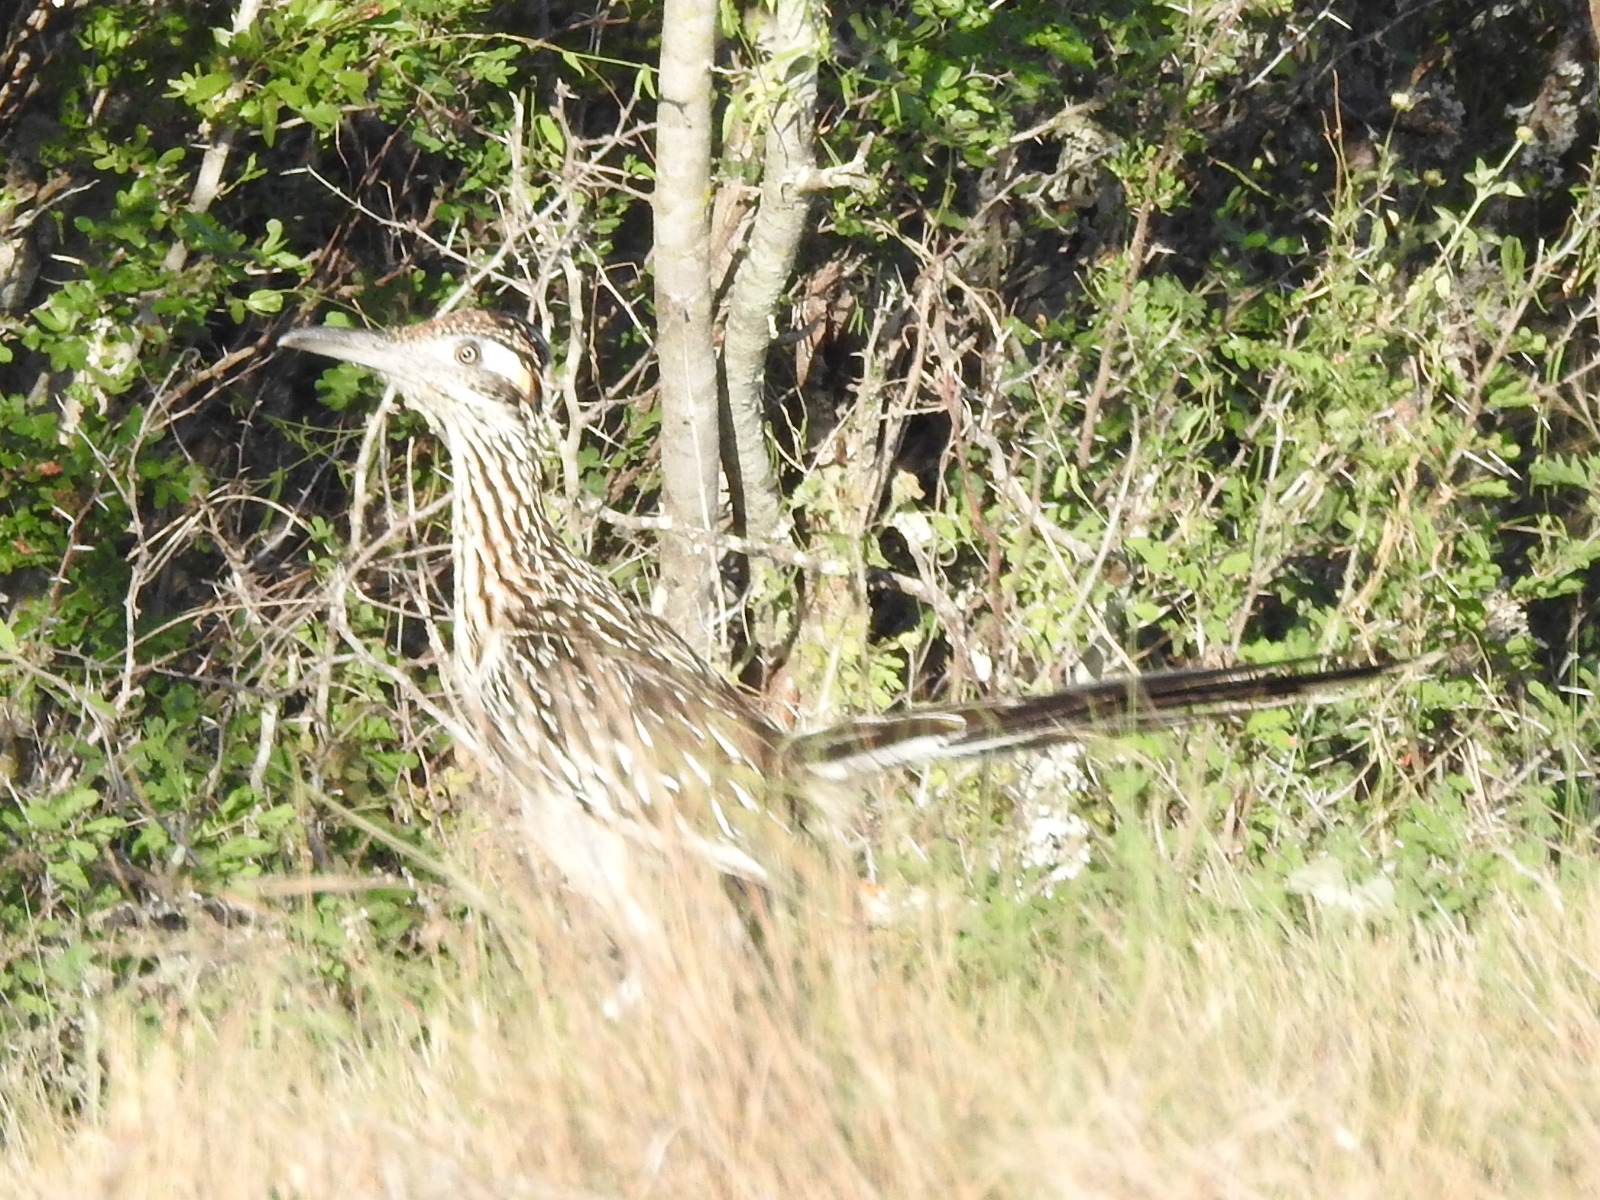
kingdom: Animalia
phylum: Chordata
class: Aves
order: Cuculiformes
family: Cuculidae
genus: Geococcyx
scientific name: Geococcyx californianus
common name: Greater roadrunner
